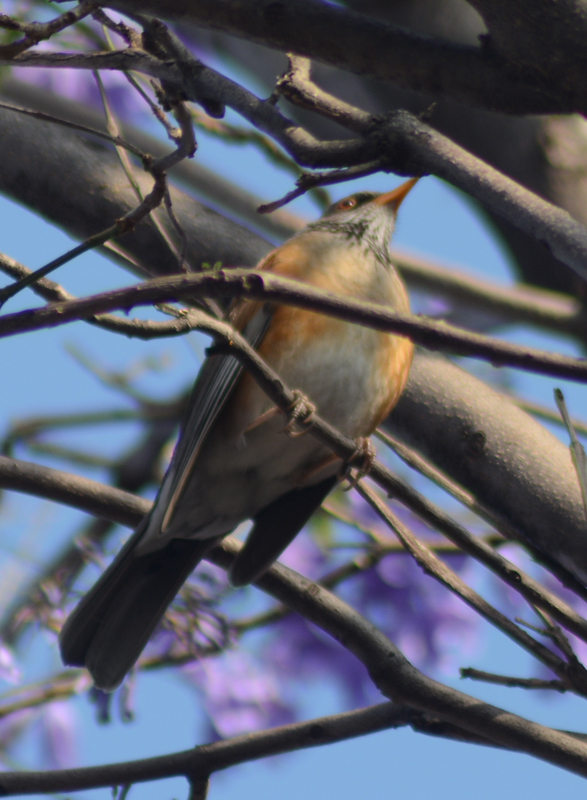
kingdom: Animalia
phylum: Chordata
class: Aves
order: Passeriformes
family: Turdidae
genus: Turdus
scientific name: Turdus rufopalliatus
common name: Rufous-backed robin
